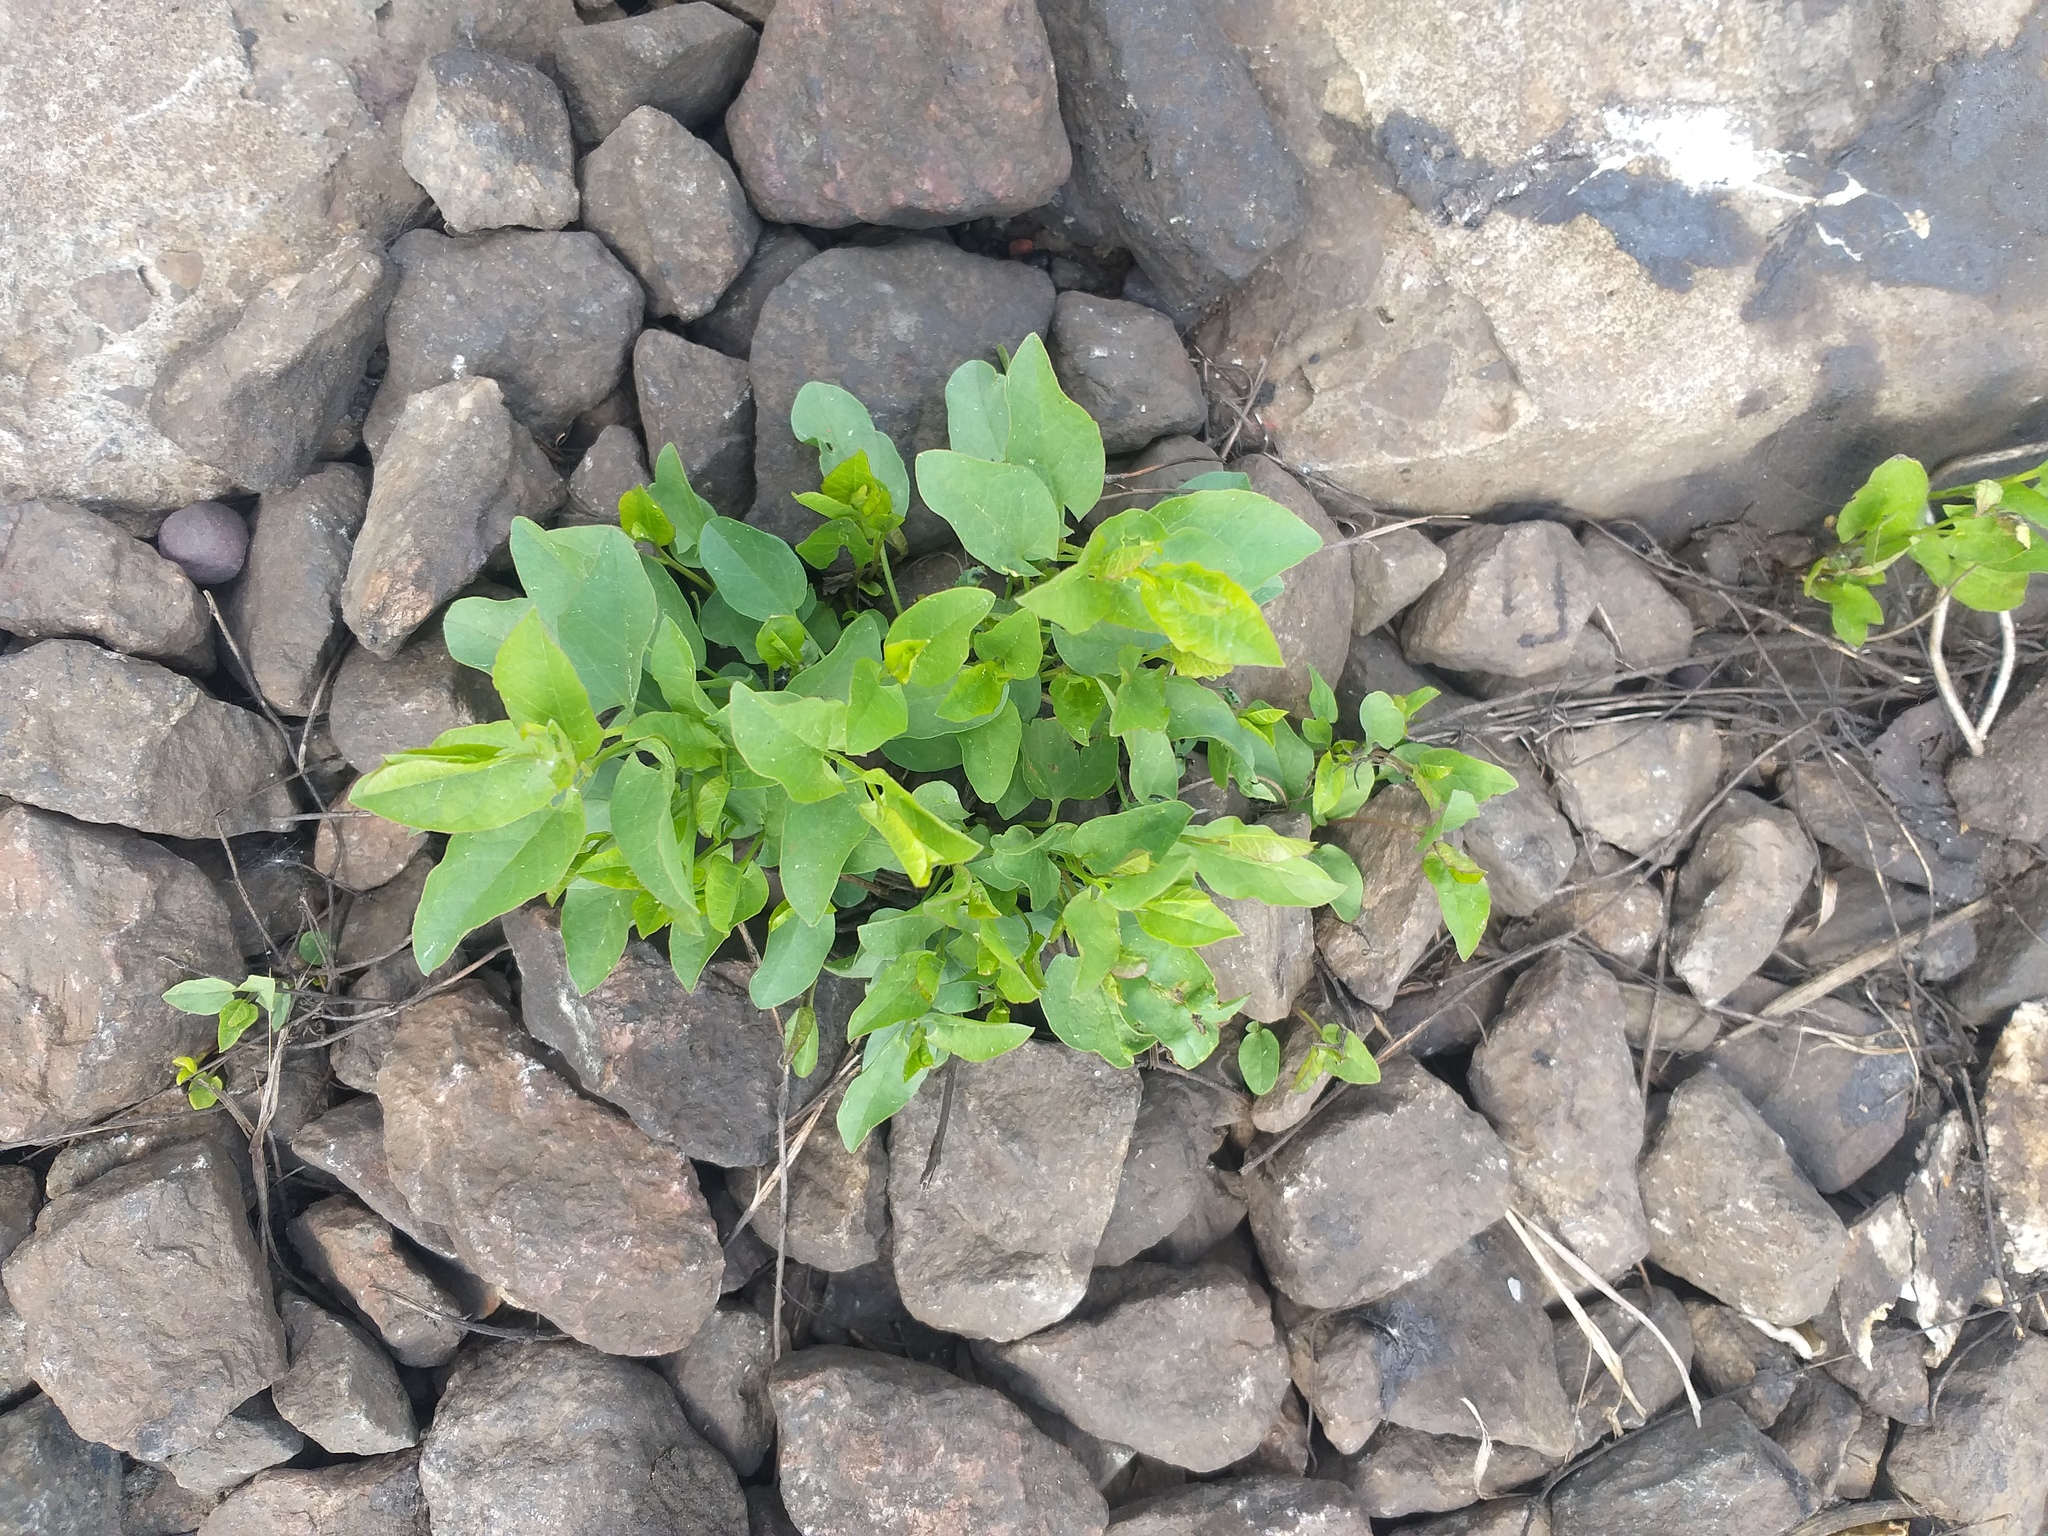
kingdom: Plantae
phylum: Tracheophyta
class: Magnoliopsida
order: Solanales
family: Convolvulaceae
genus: Convolvulus
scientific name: Convolvulus arvensis
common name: Field bindweed
